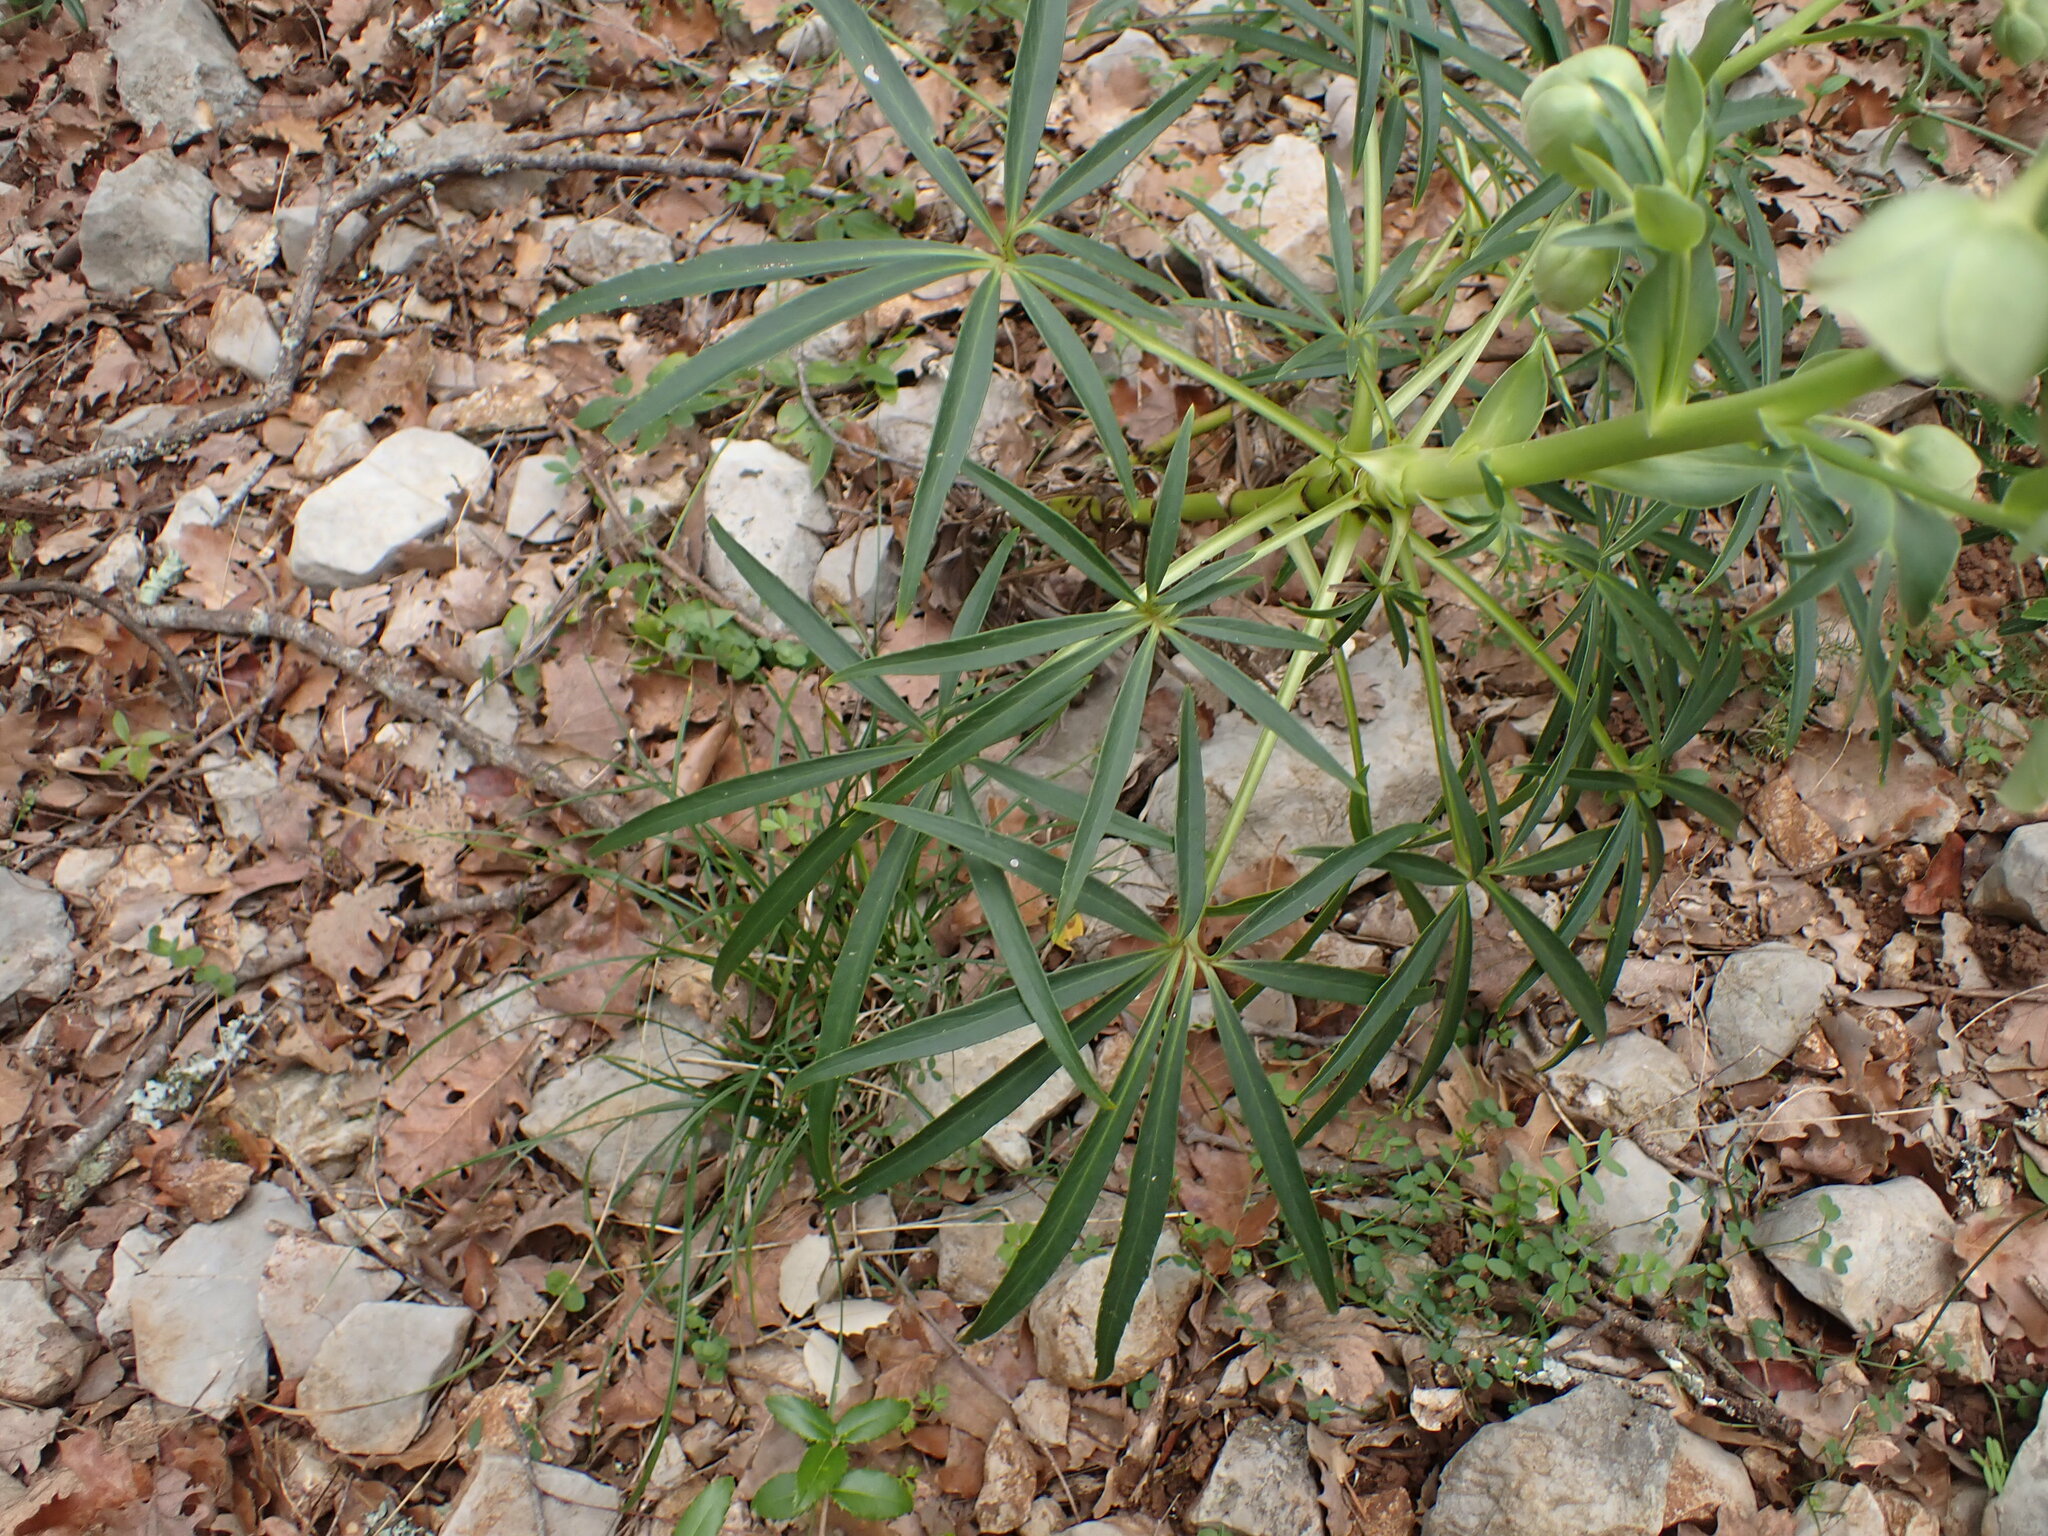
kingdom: Plantae
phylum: Tracheophyta
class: Magnoliopsida
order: Ranunculales
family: Ranunculaceae
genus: Helleborus
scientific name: Helleborus foetidus
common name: Stinking hellebore
